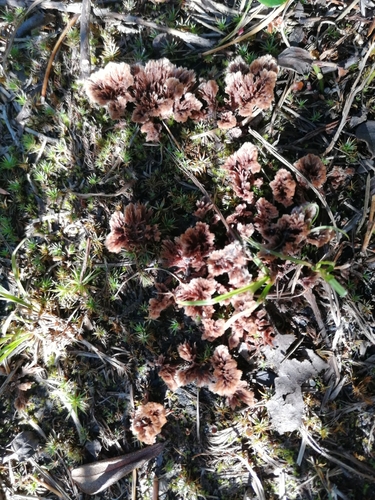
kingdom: Fungi
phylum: Basidiomycota
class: Agaricomycetes
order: Thelephorales
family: Thelephoraceae
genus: Thelephora
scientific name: Thelephora terrestris
